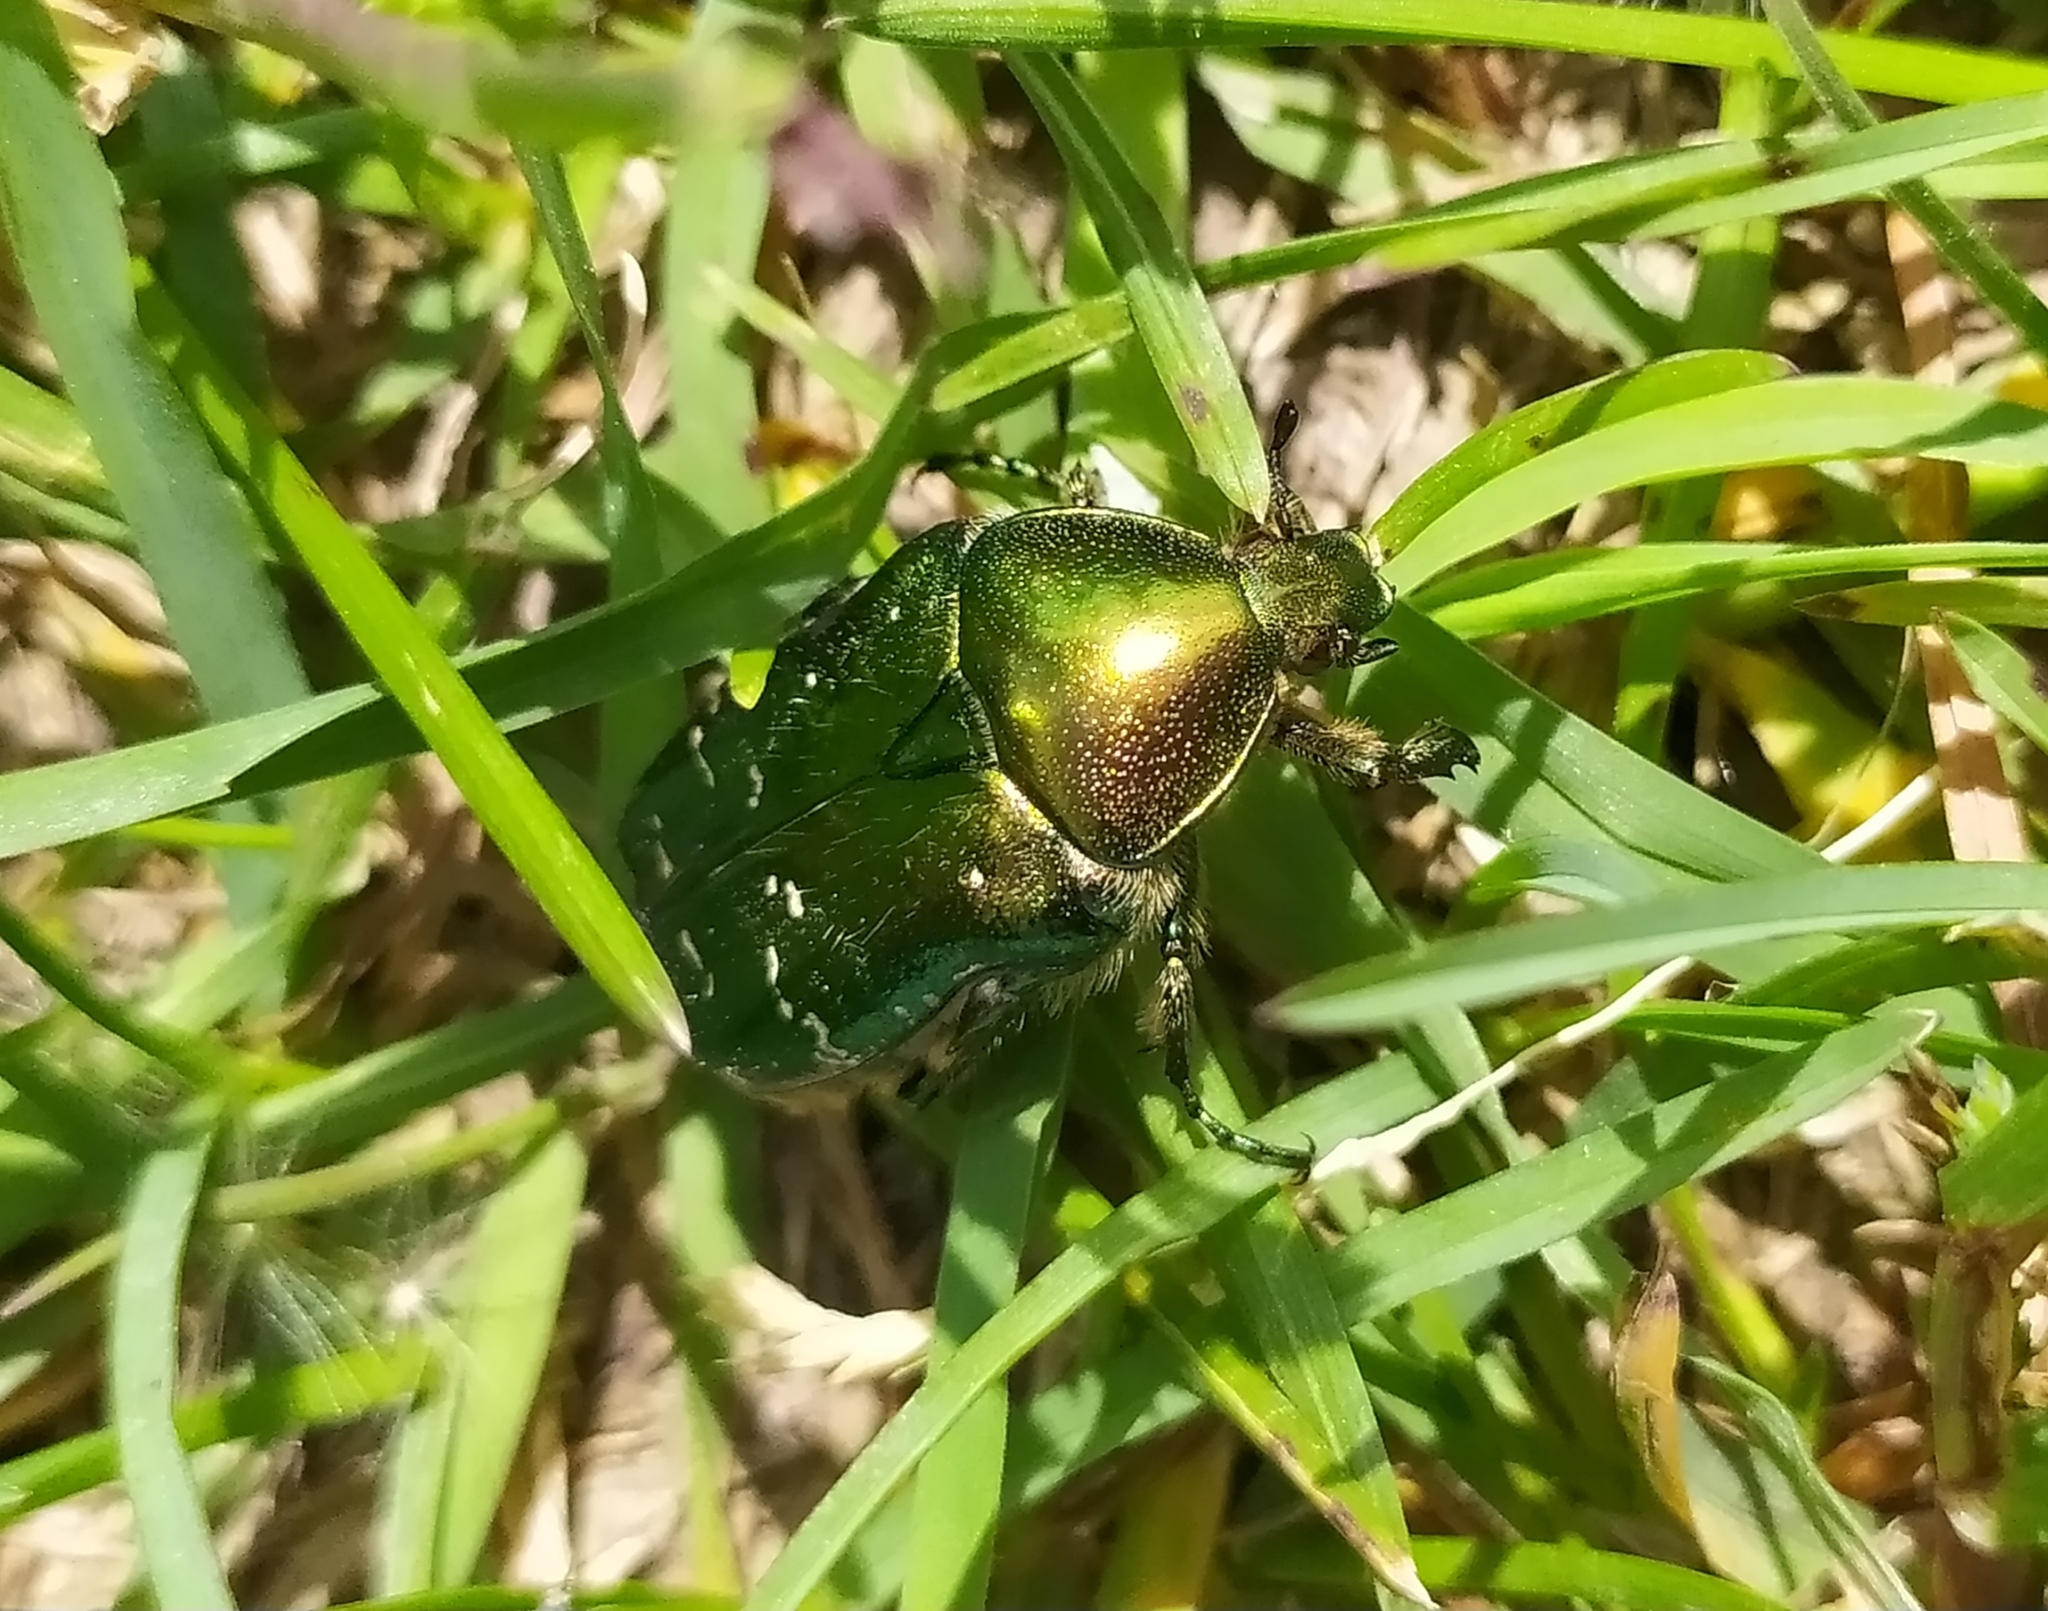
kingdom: Animalia
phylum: Arthropoda
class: Insecta
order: Coleoptera
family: Scarabaeidae
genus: Cetonia
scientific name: Cetonia aurata
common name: Rose chafer
